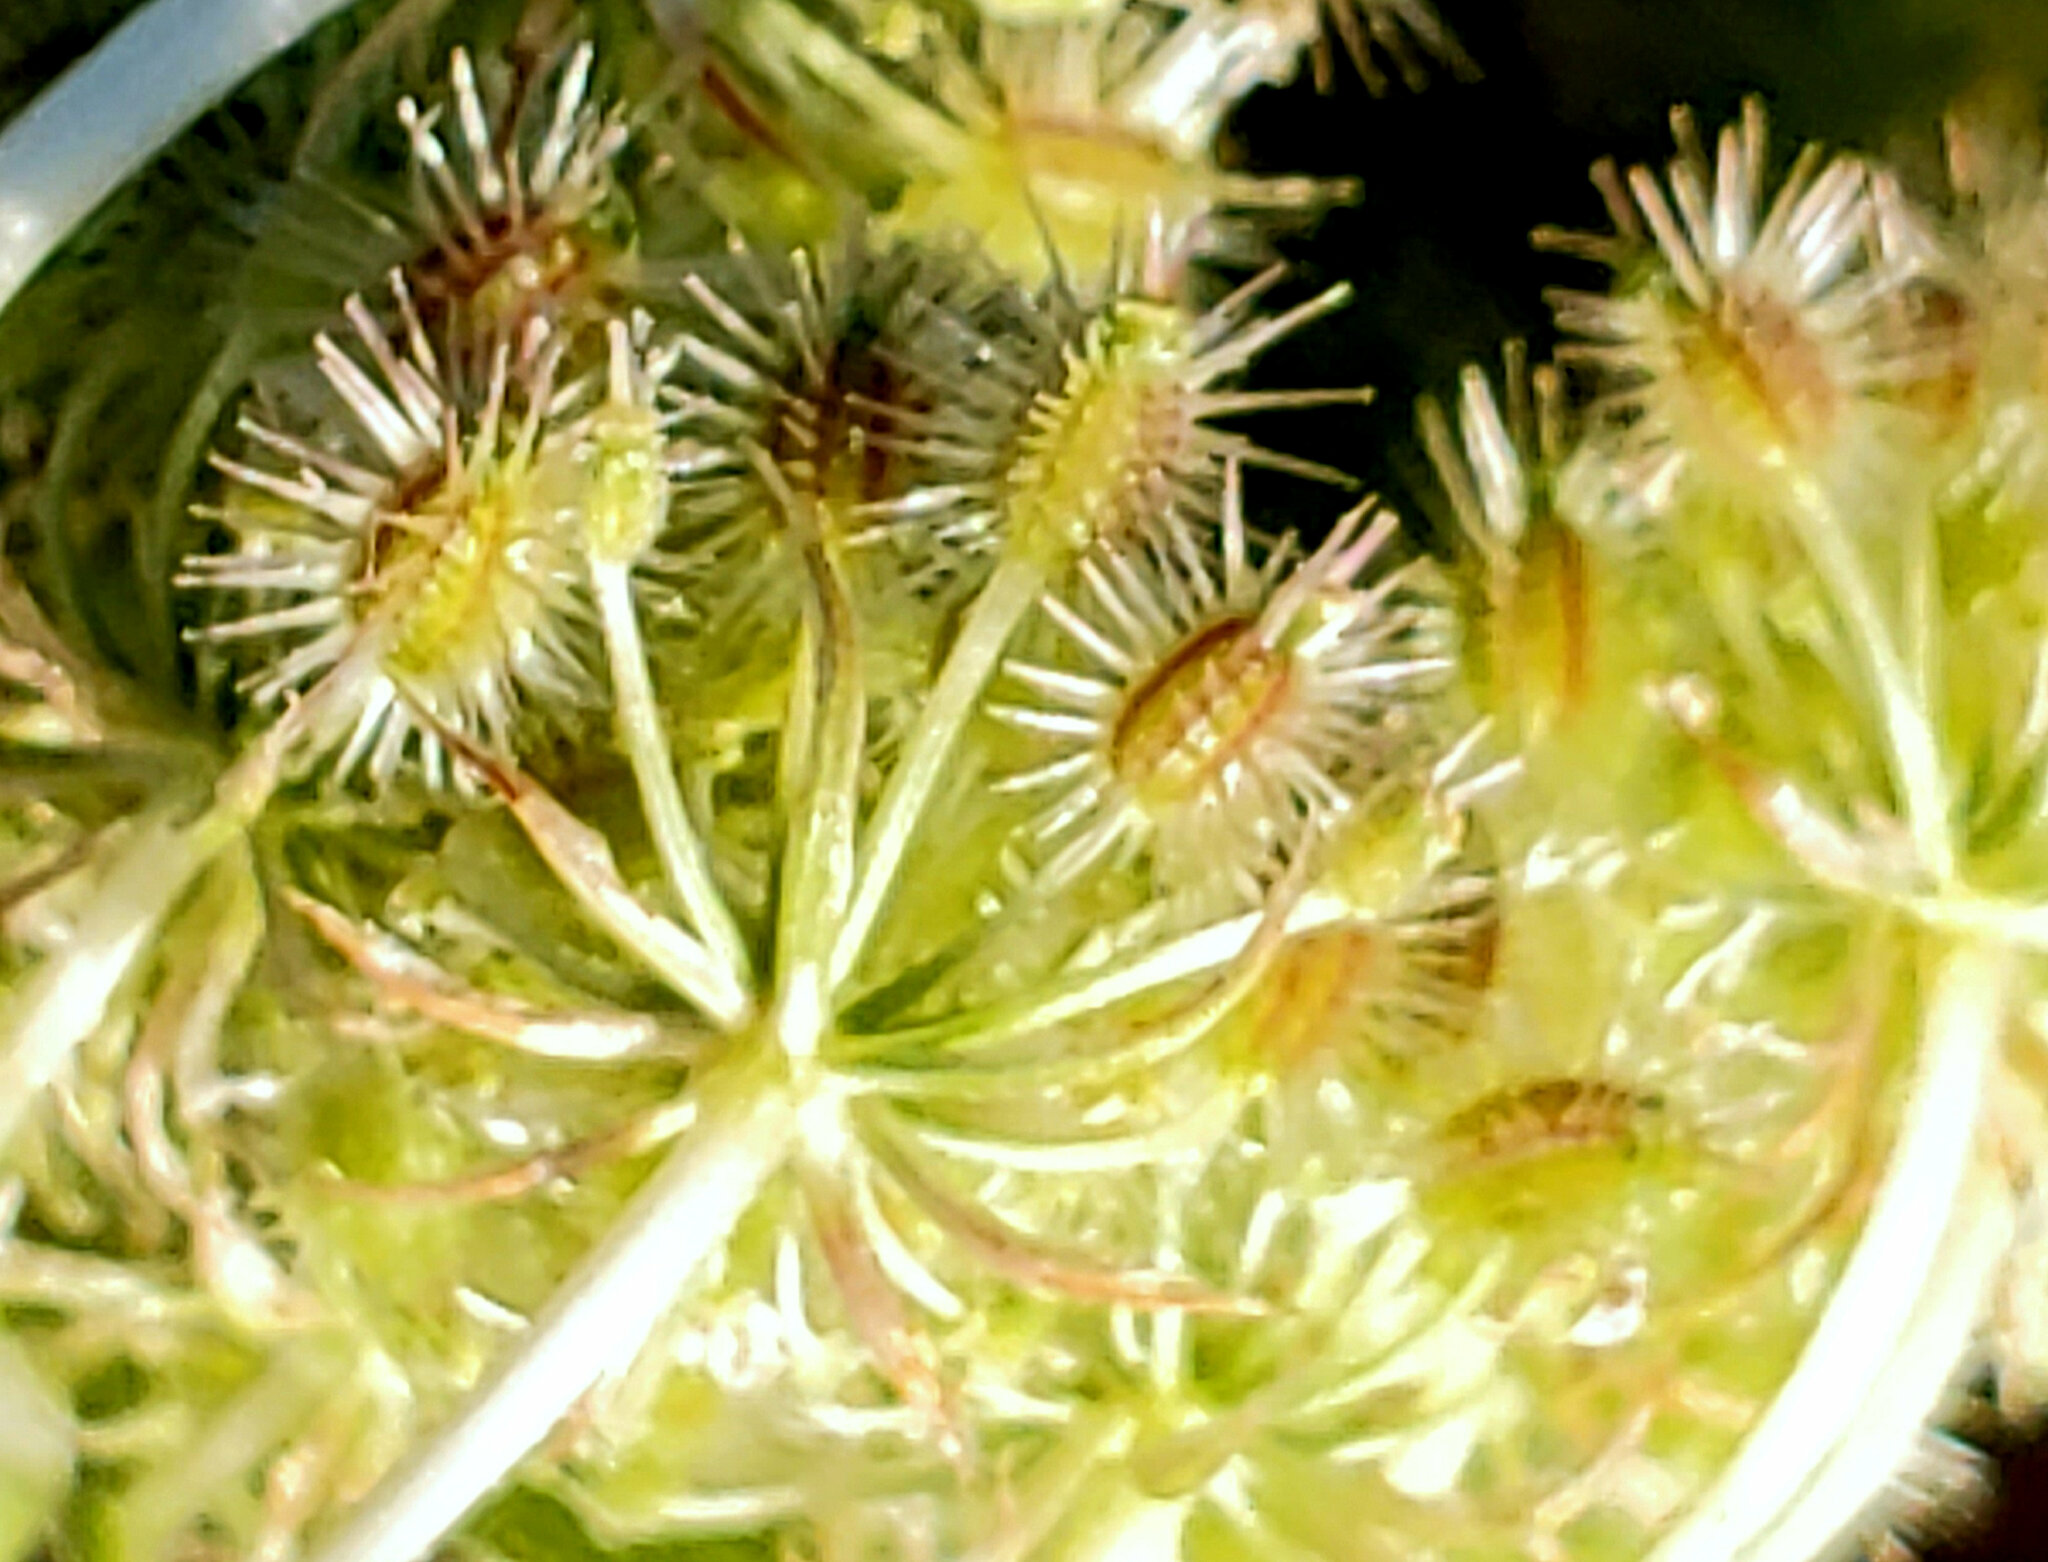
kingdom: Plantae
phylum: Tracheophyta
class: Magnoliopsida
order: Apiales
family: Apiaceae
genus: Daucus
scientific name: Daucus carota
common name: Wild carrot
